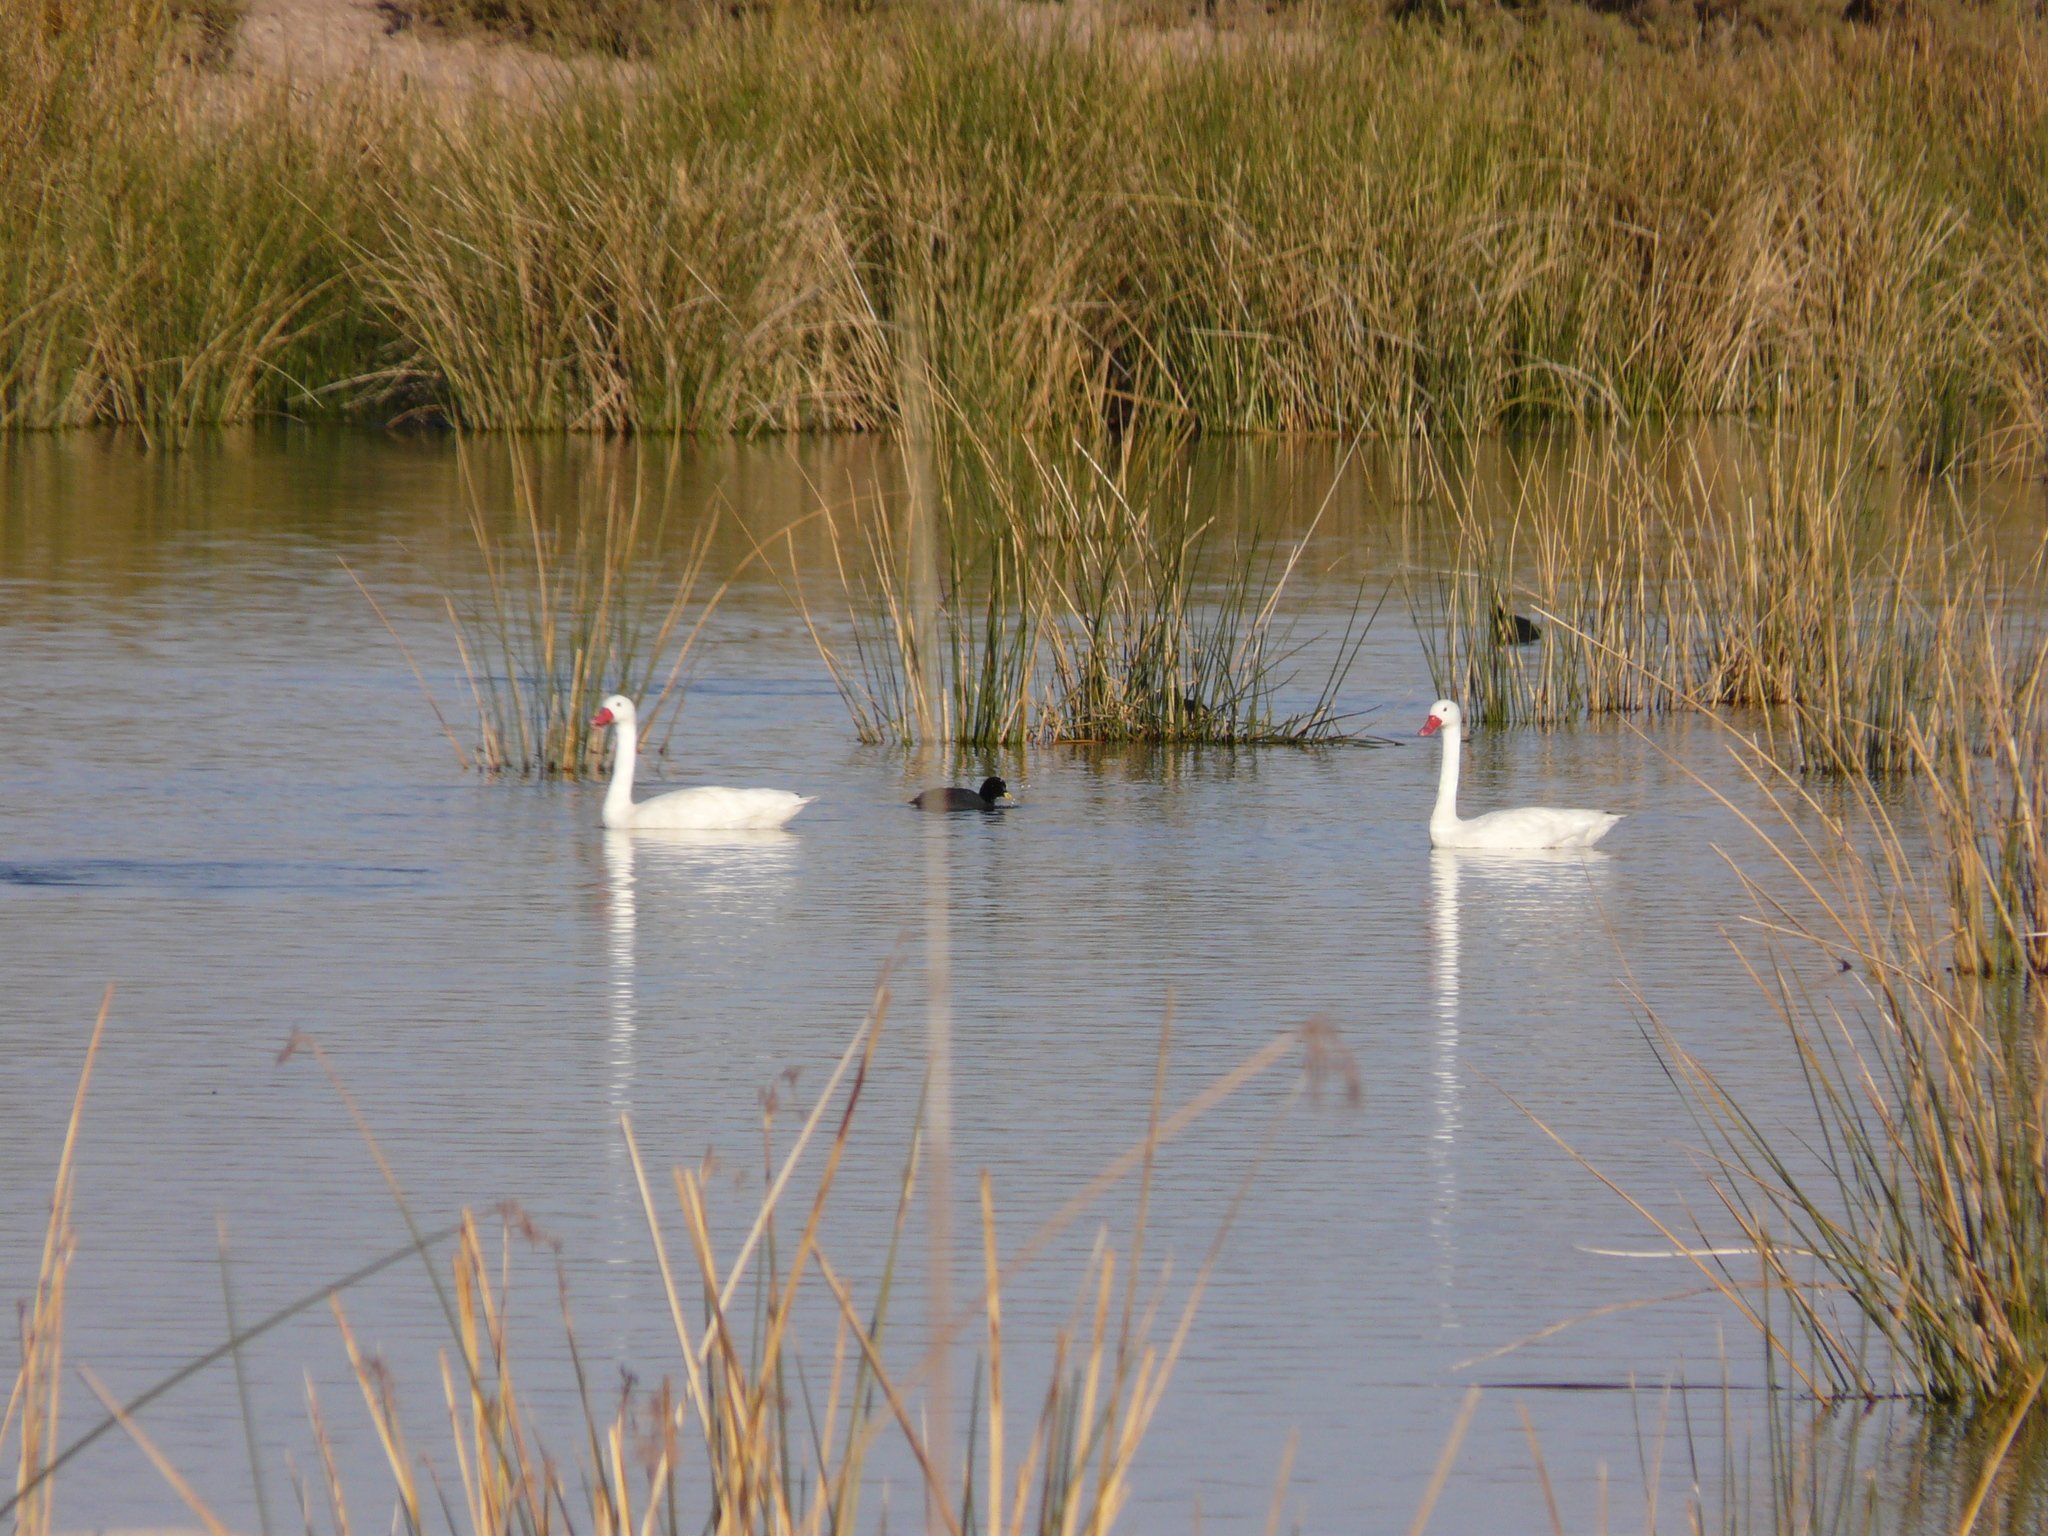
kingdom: Animalia
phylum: Chordata
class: Aves
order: Anseriformes
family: Anatidae
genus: Coscoroba
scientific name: Coscoroba coscoroba
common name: Coscoroba swan
